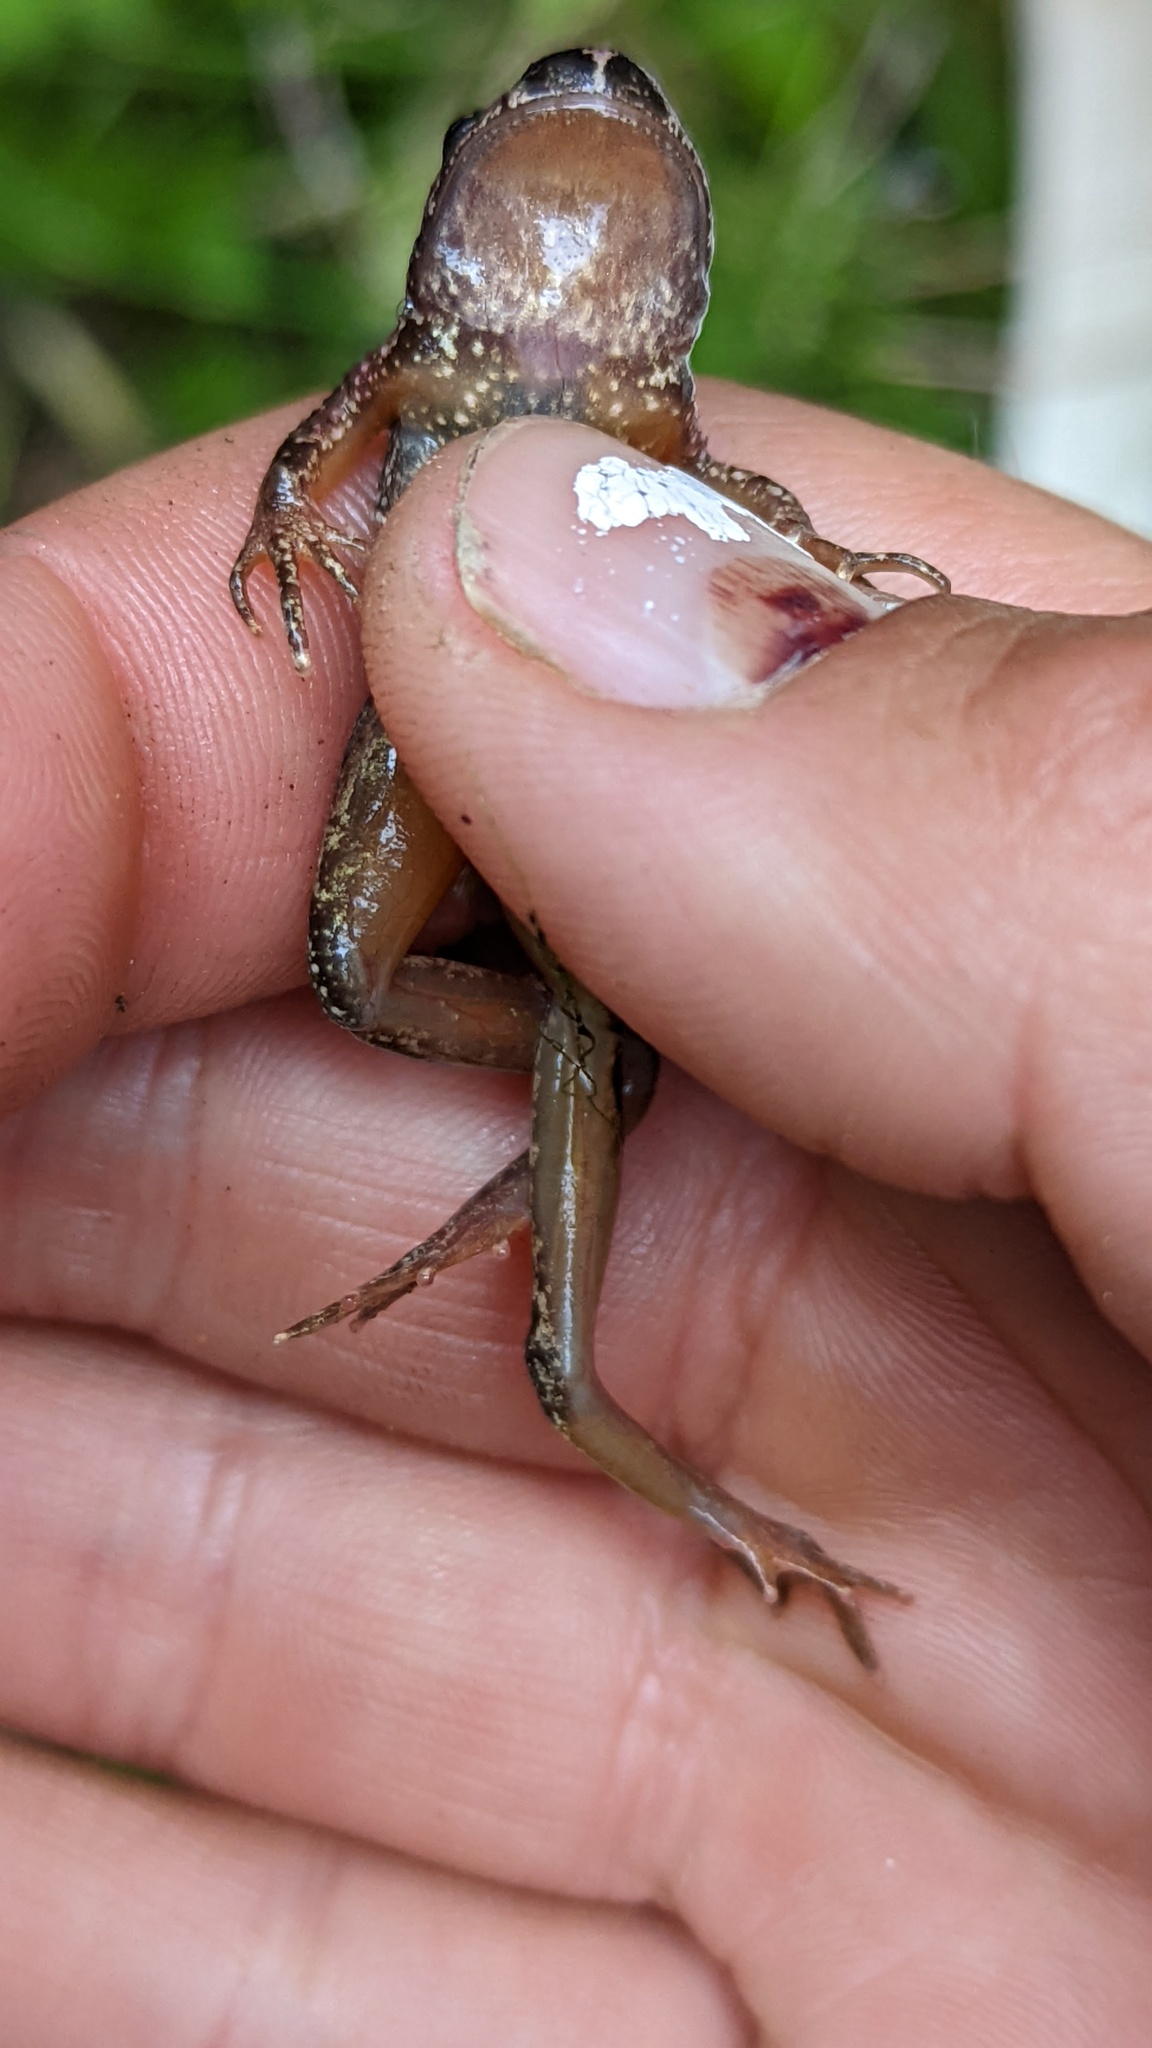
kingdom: Animalia
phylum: Chordata
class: Amphibia
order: Anura
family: Ascaphidae
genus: Ascaphus
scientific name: Ascaphus truei
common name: Tailed frog
